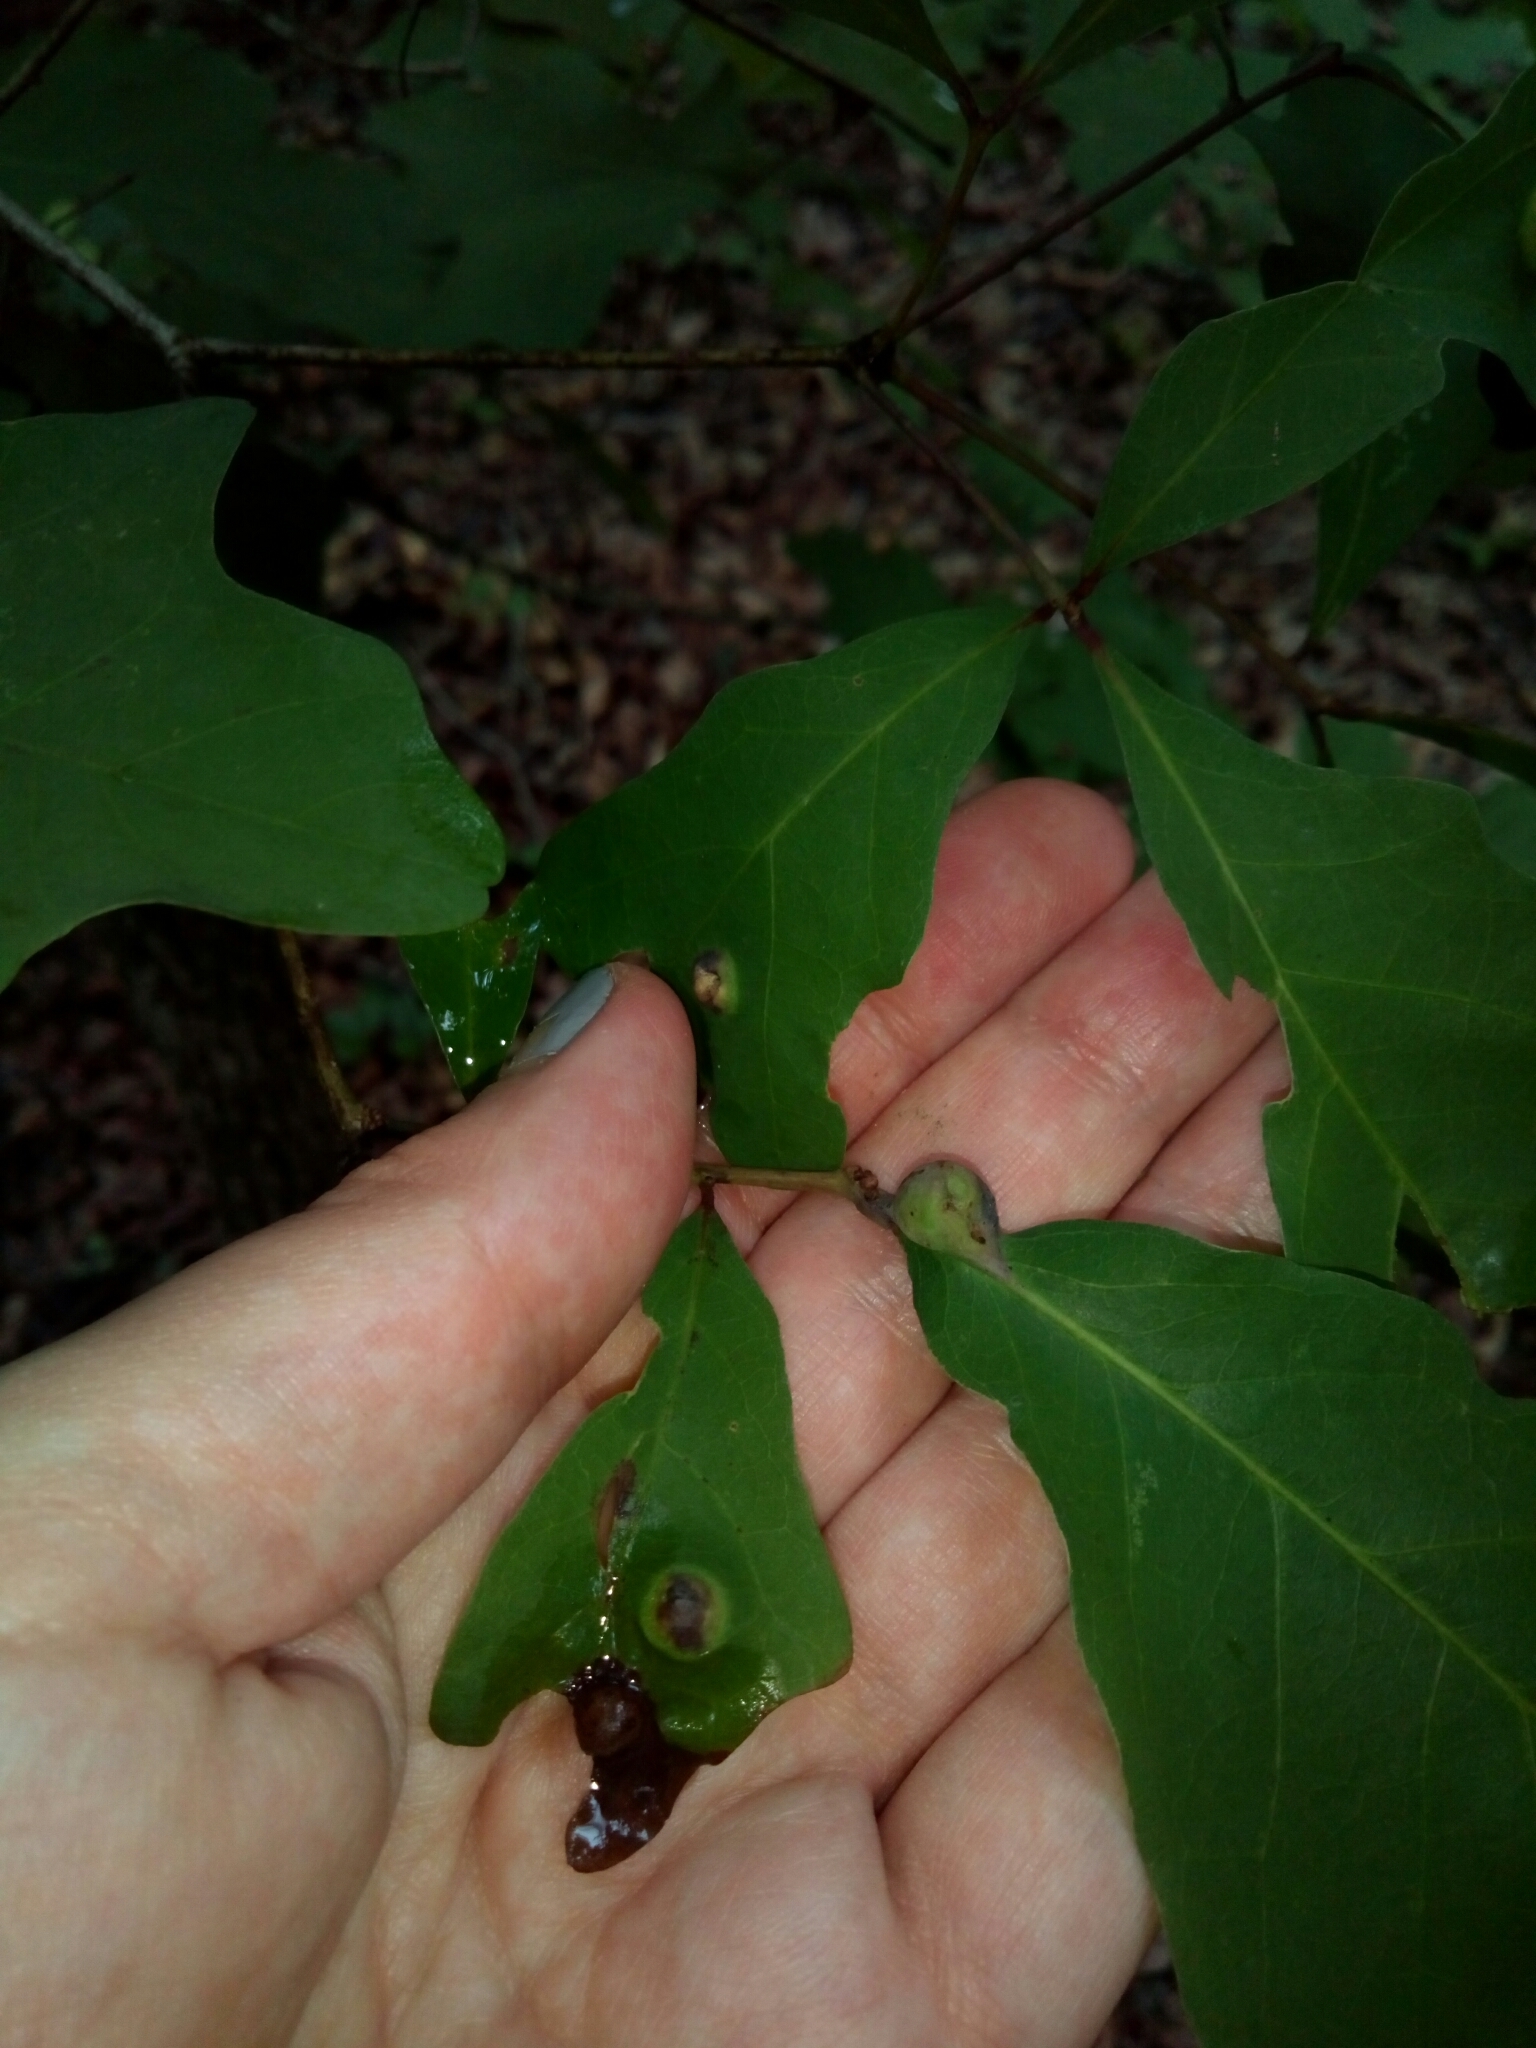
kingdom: Animalia
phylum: Arthropoda
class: Insecta
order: Hymenoptera
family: Cynipidae
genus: Andricus
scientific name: Andricus
